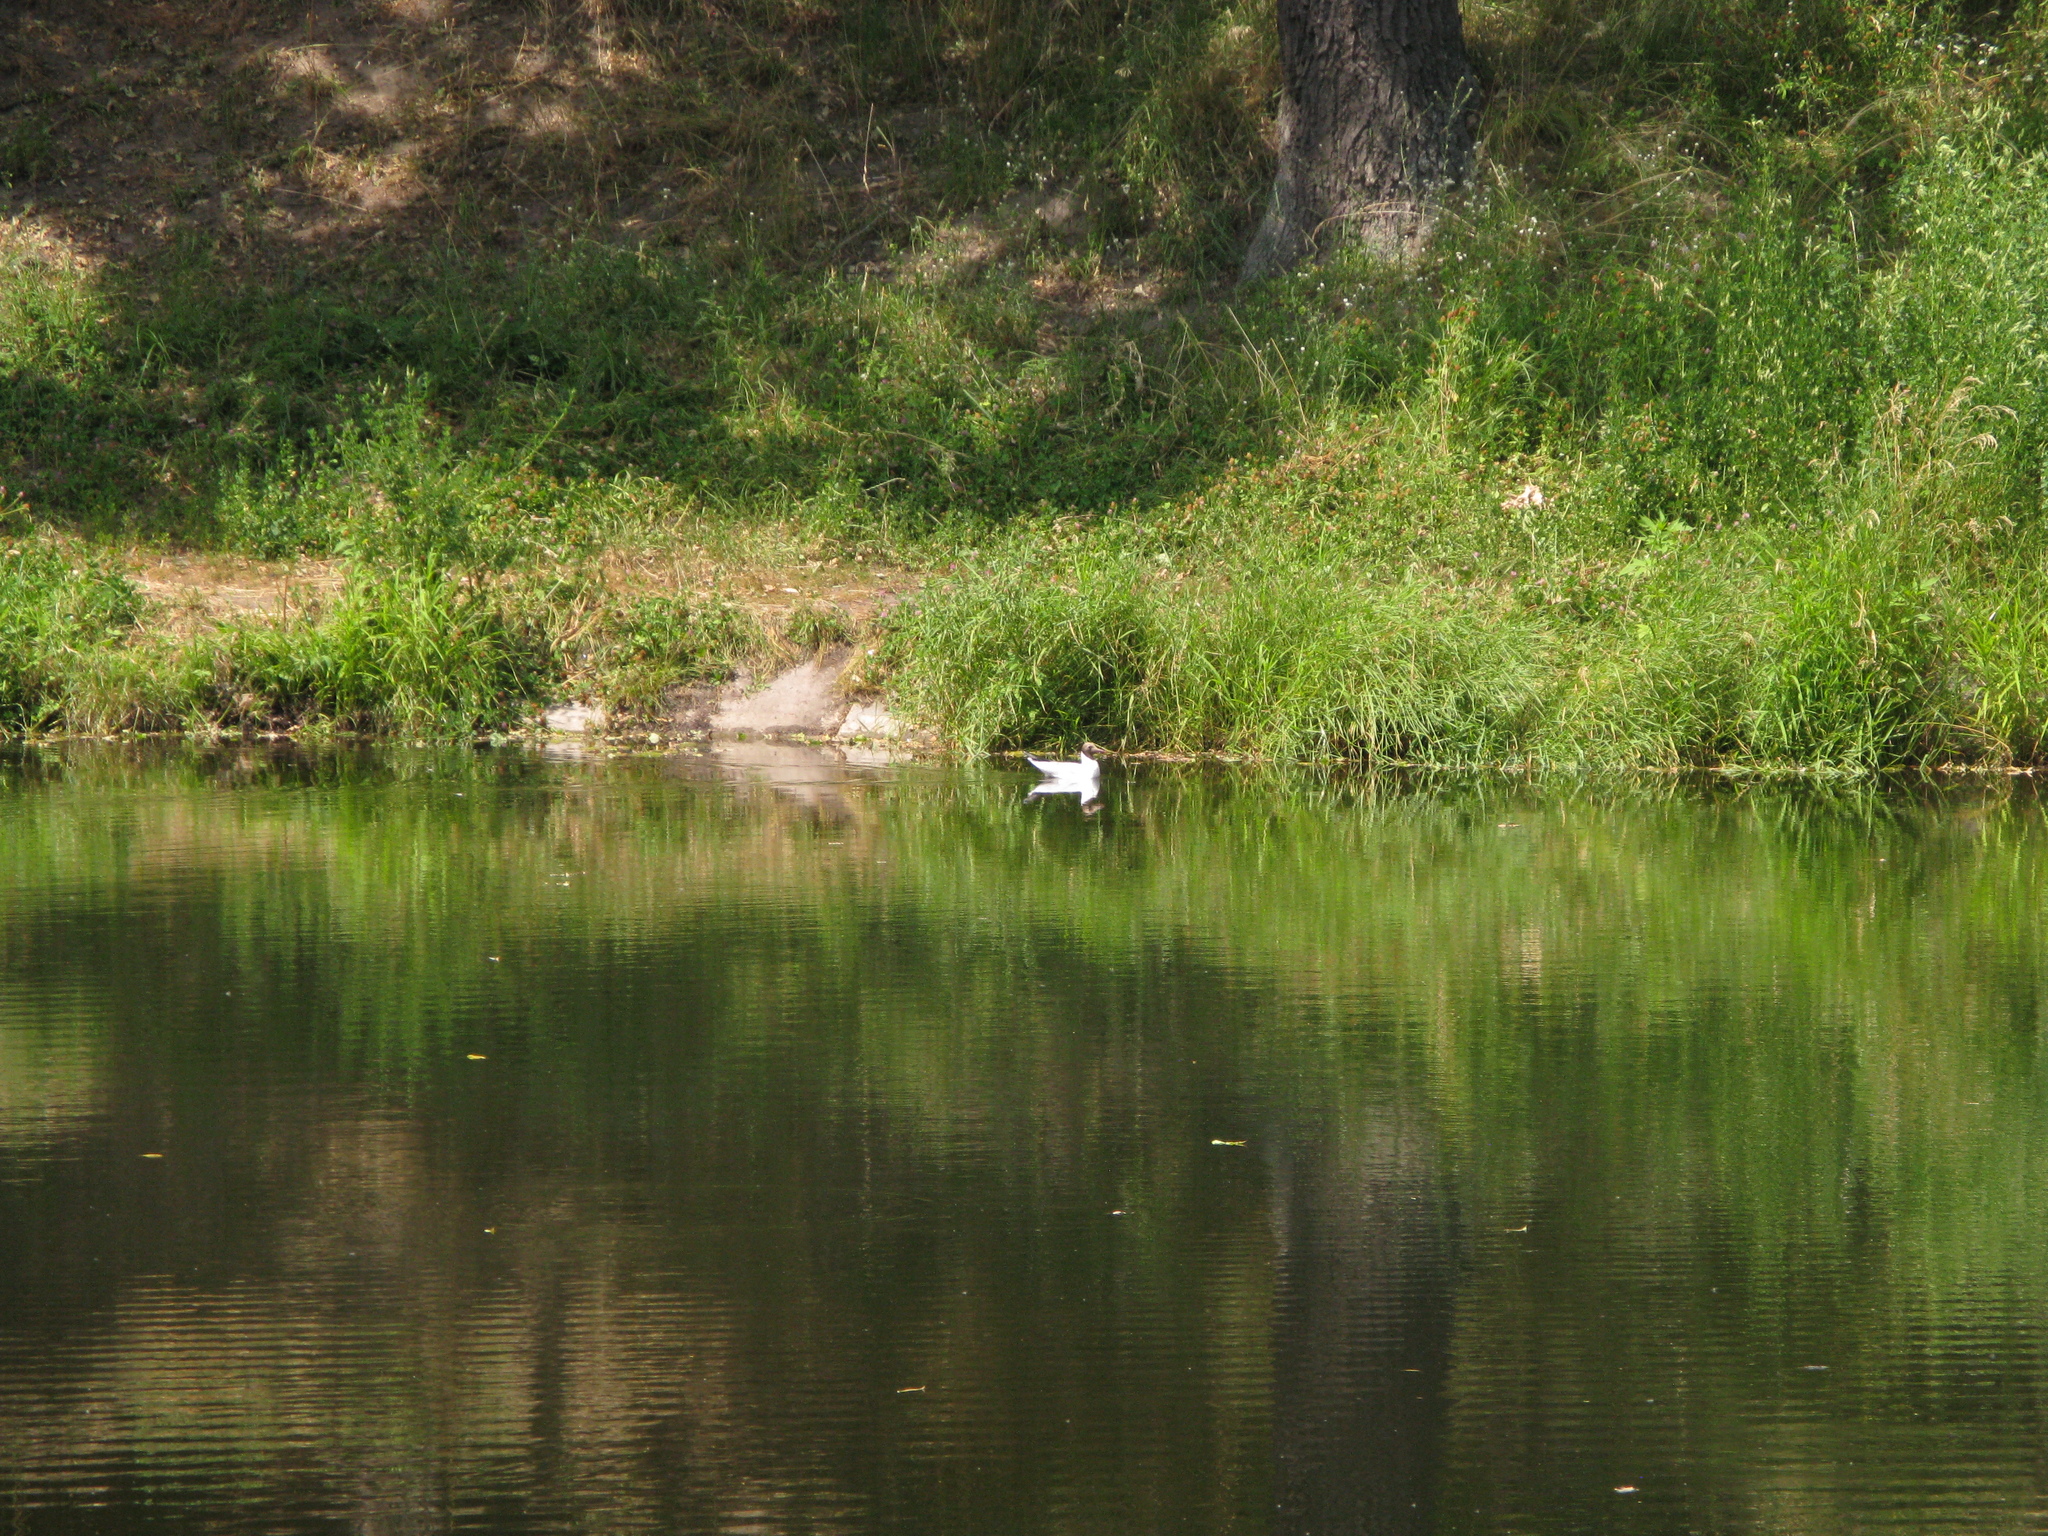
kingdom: Animalia
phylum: Chordata
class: Aves
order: Charadriiformes
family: Laridae
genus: Chroicocephalus
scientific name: Chroicocephalus ridibundus
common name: Black-headed gull
